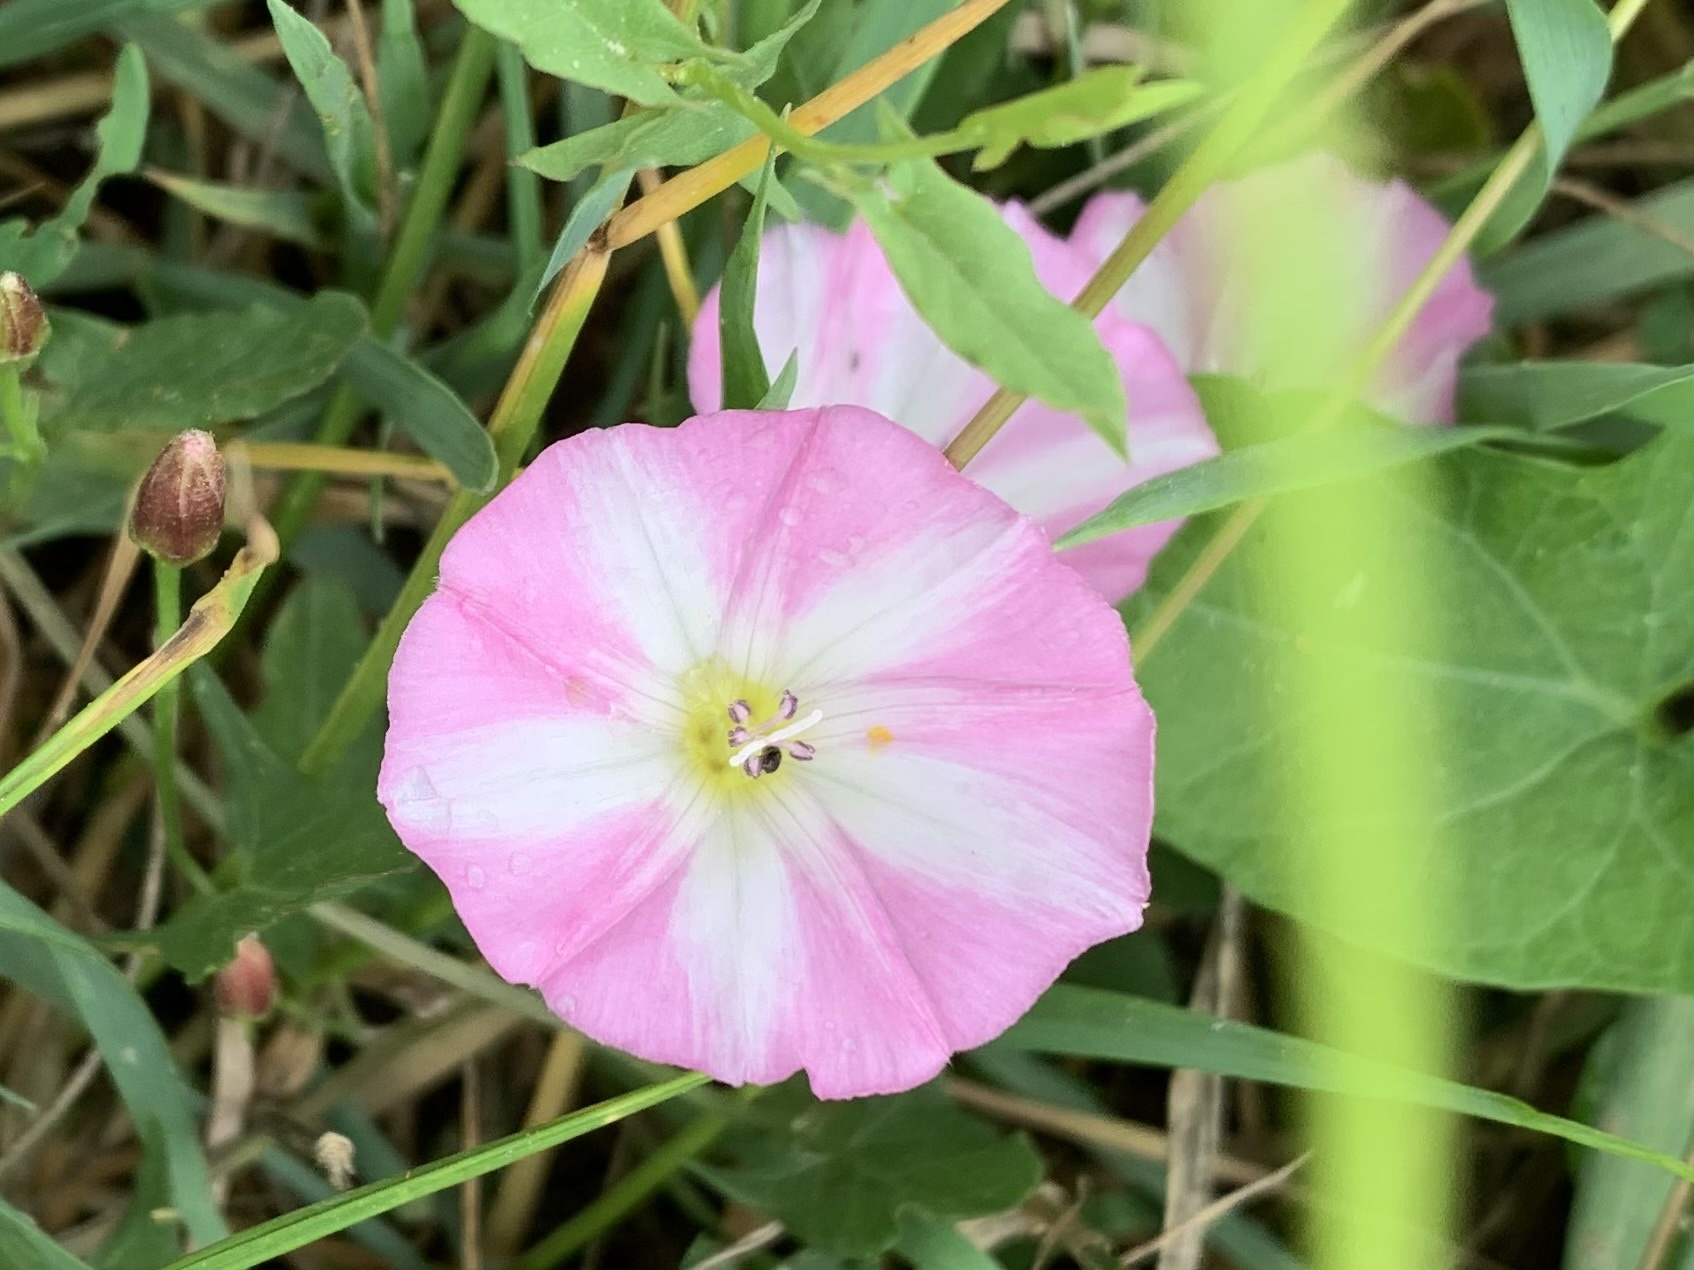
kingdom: Plantae
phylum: Tracheophyta
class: Magnoliopsida
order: Solanales
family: Convolvulaceae
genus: Convolvulus
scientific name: Convolvulus arvensis
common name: Field bindweed
